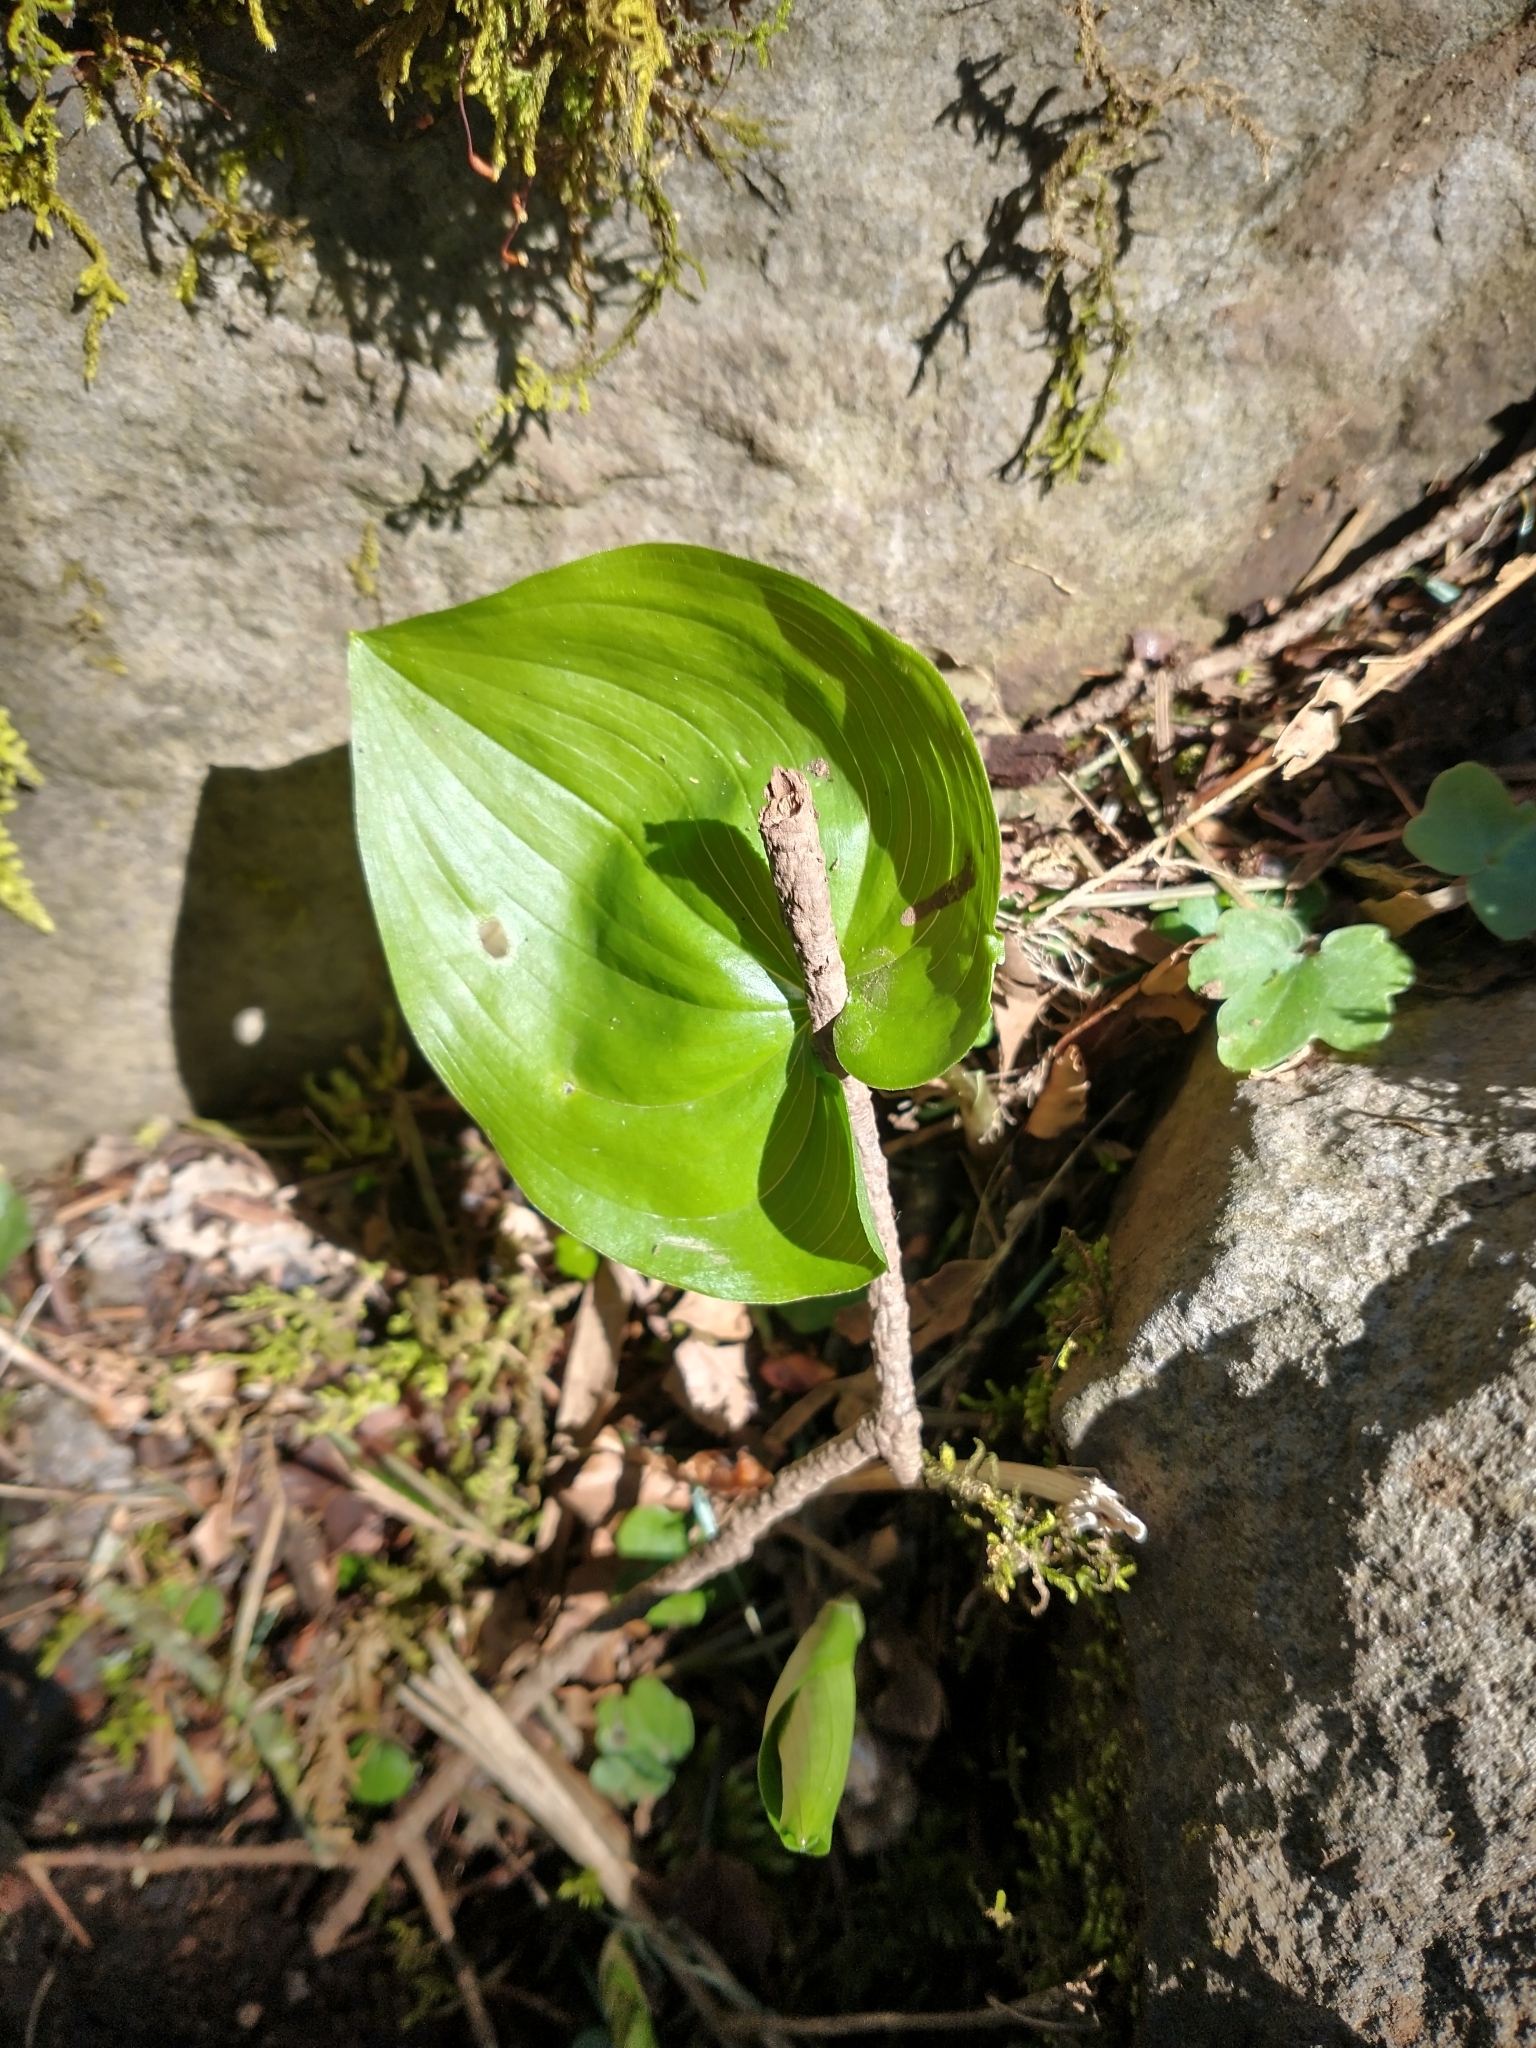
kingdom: Plantae
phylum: Tracheophyta
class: Liliopsida
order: Asparagales
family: Asparagaceae
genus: Maianthemum
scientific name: Maianthemum dilatatum
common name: False lily-of-the-valley
